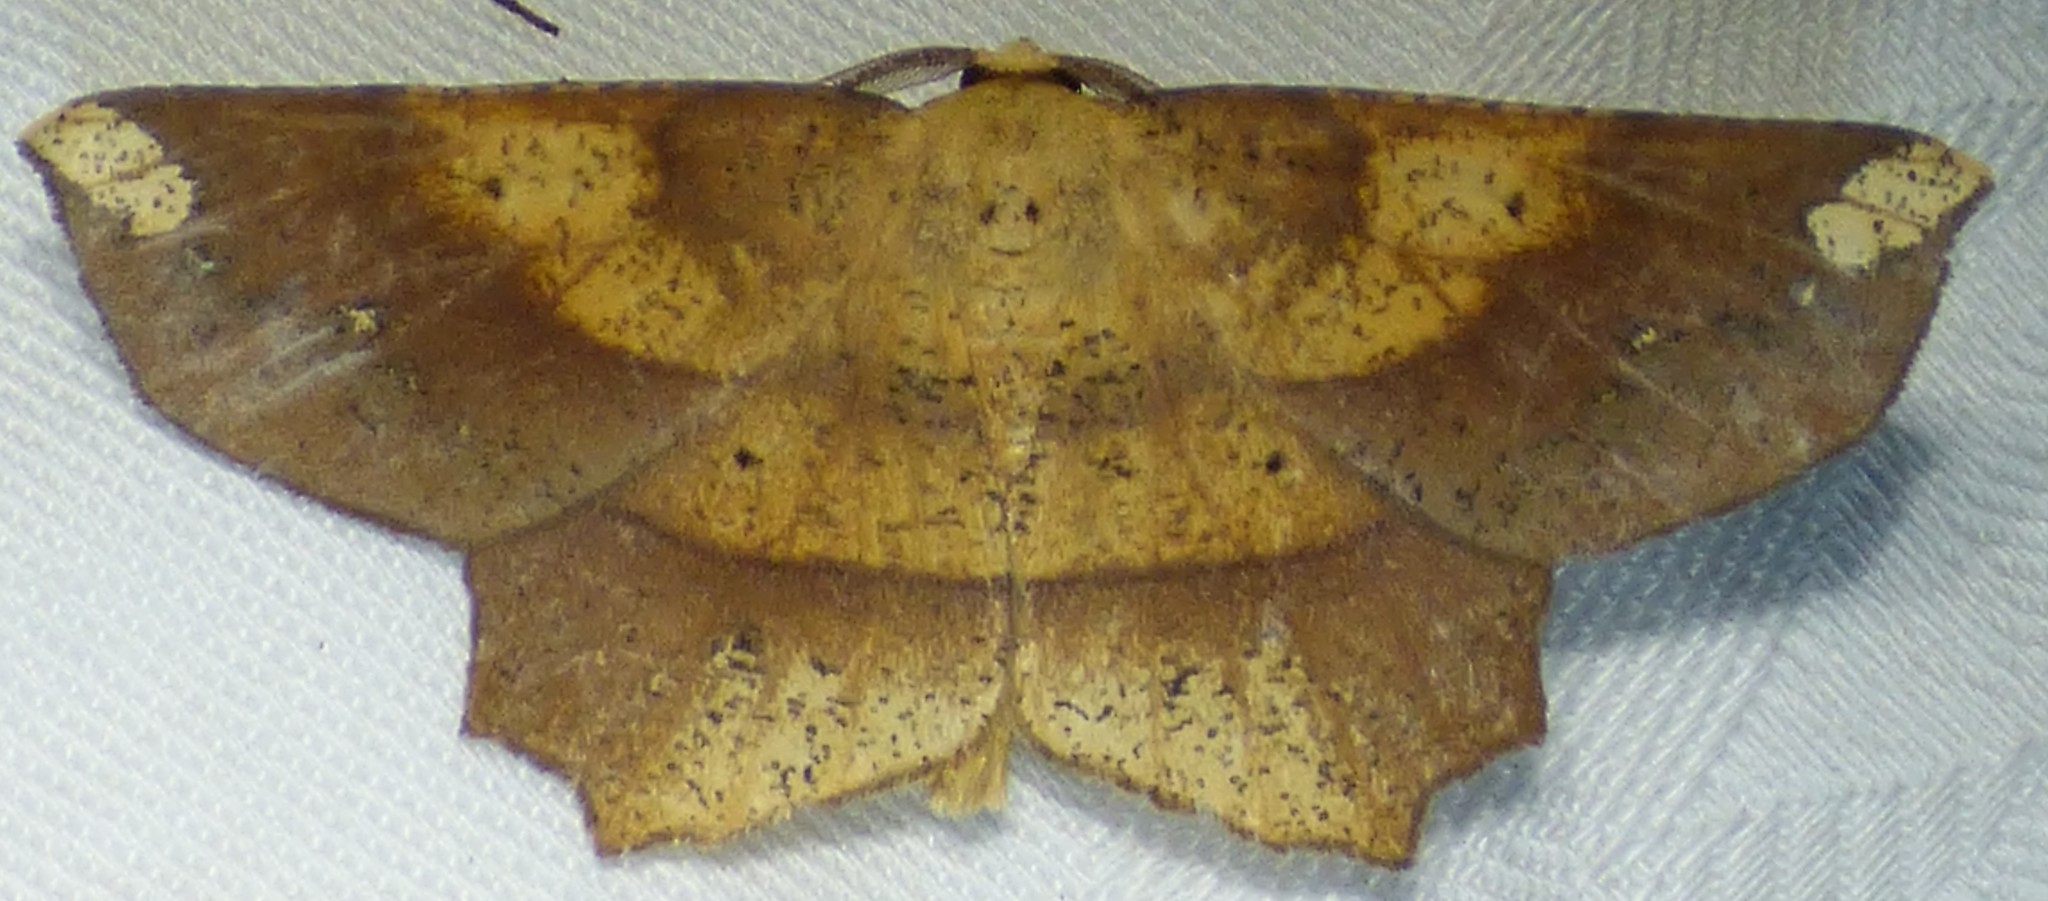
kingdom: Animalia
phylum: Arthropoda
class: Insecta
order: Lepidoptera
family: Geometridae
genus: Euchlaena
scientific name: Euchlaena amoenaria
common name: Deep yellow euchlaena
